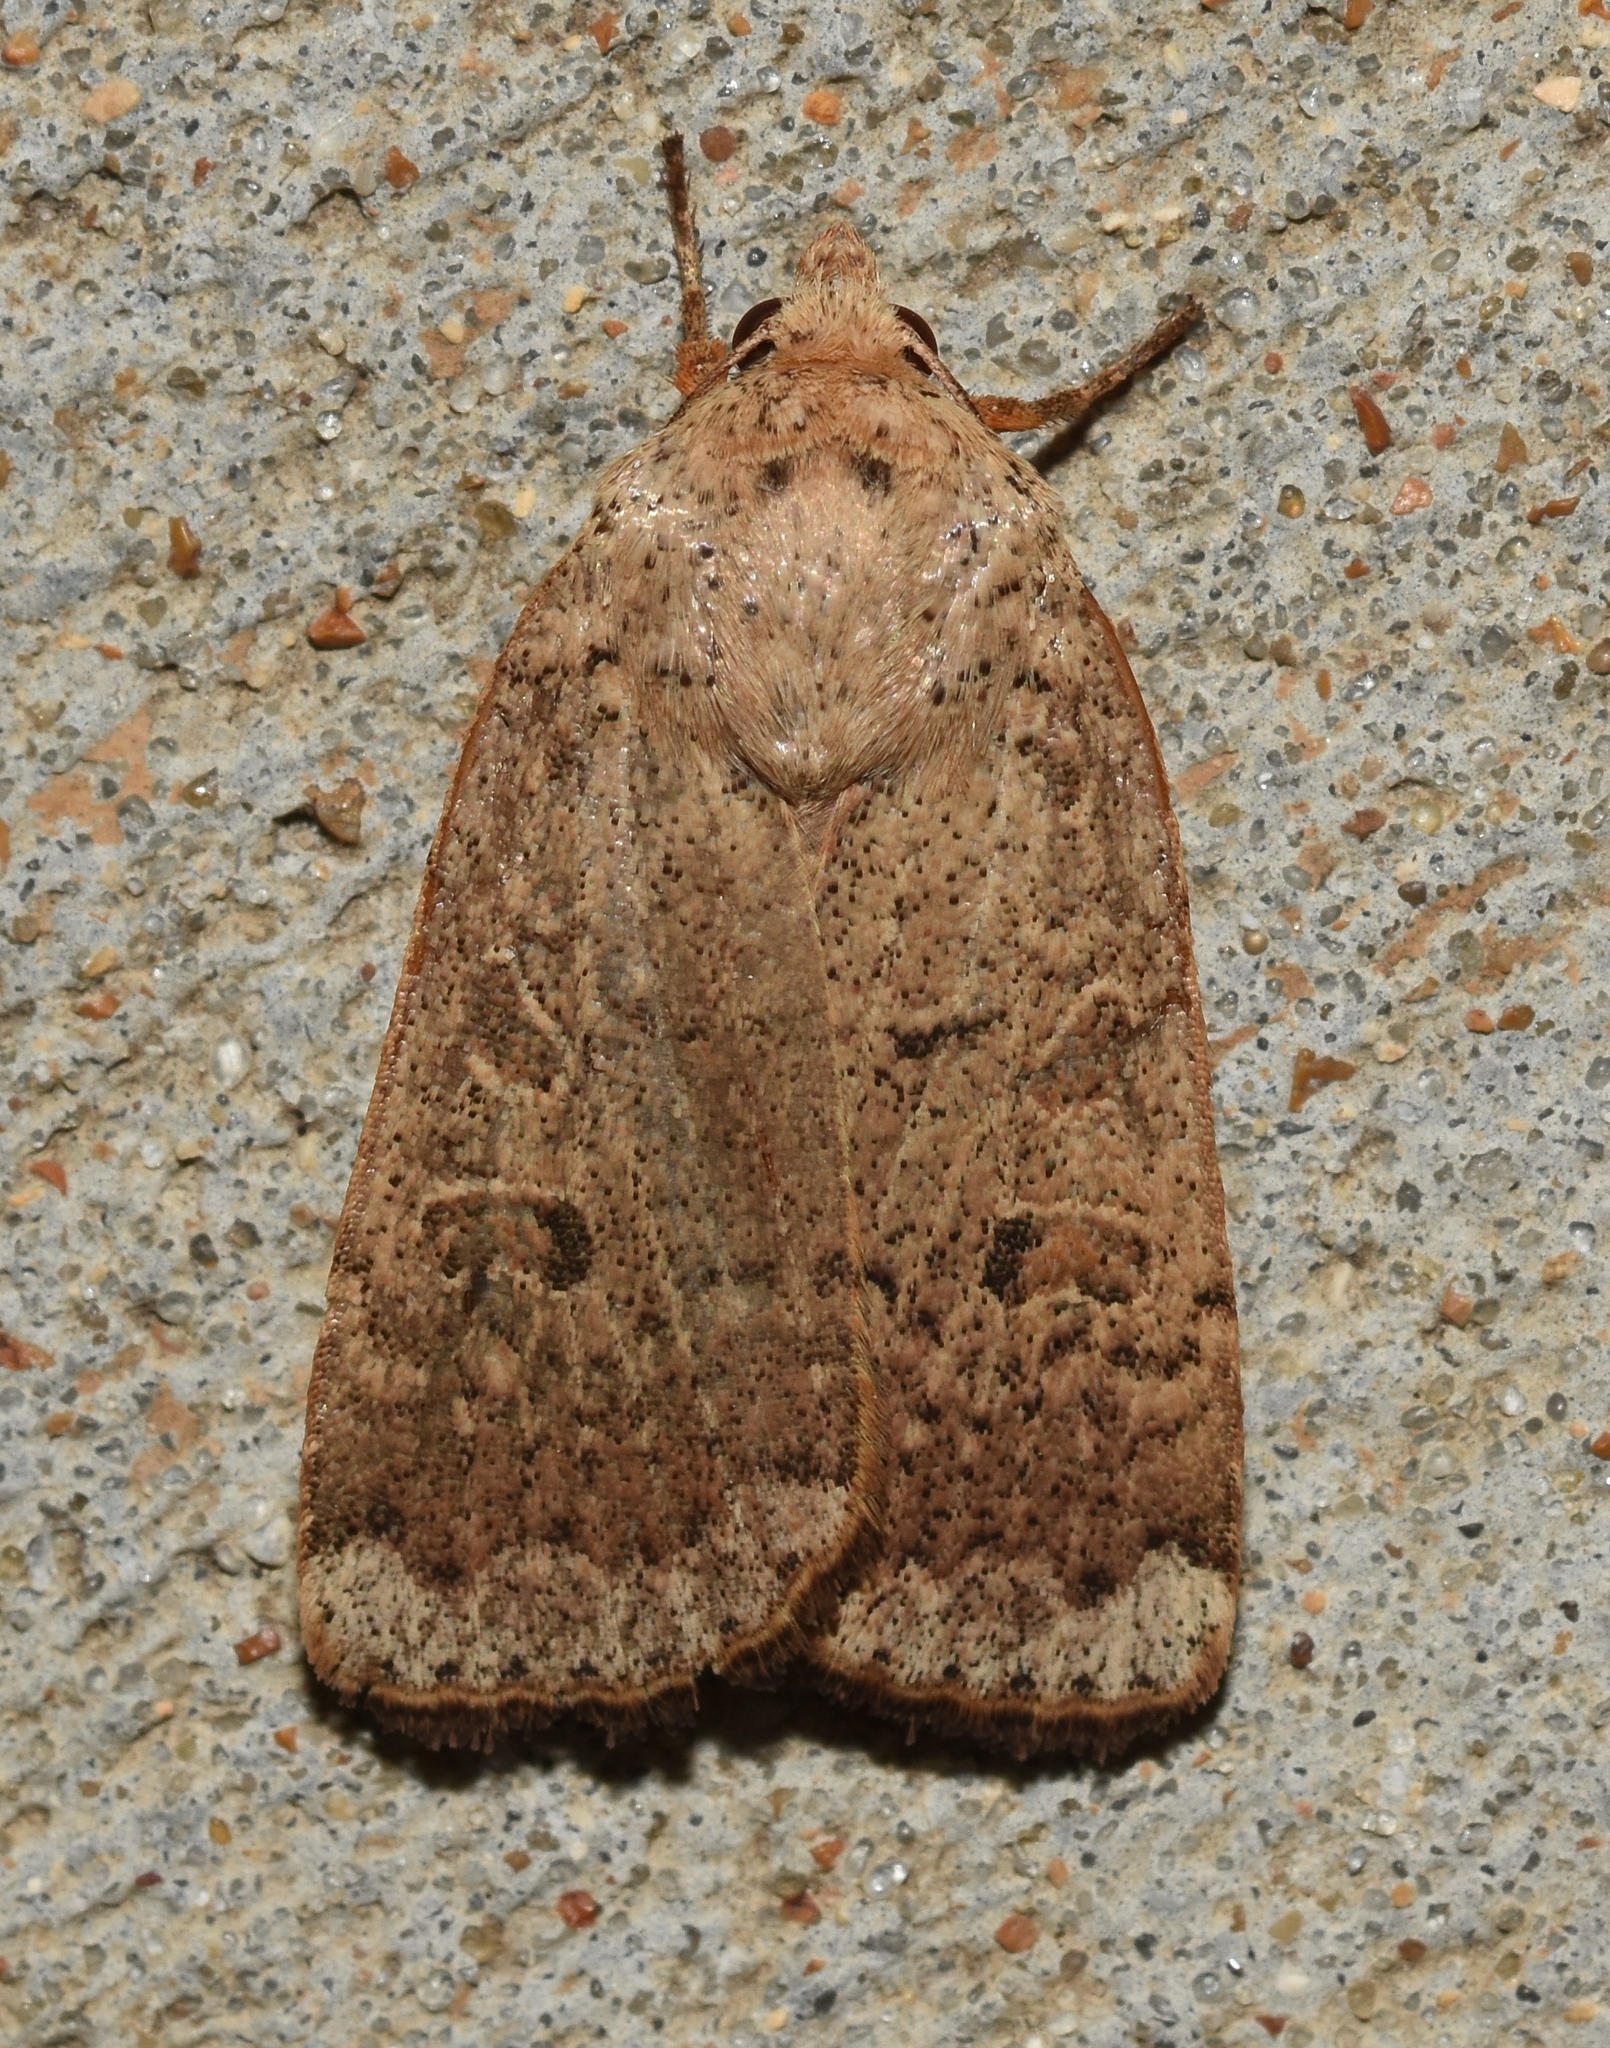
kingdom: Animalia
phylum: Arthropoda
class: Insecta
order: Lepidoptera
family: Noctuidae
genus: Abagrotis
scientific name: Abagrotis alternata
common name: Greater red dart
